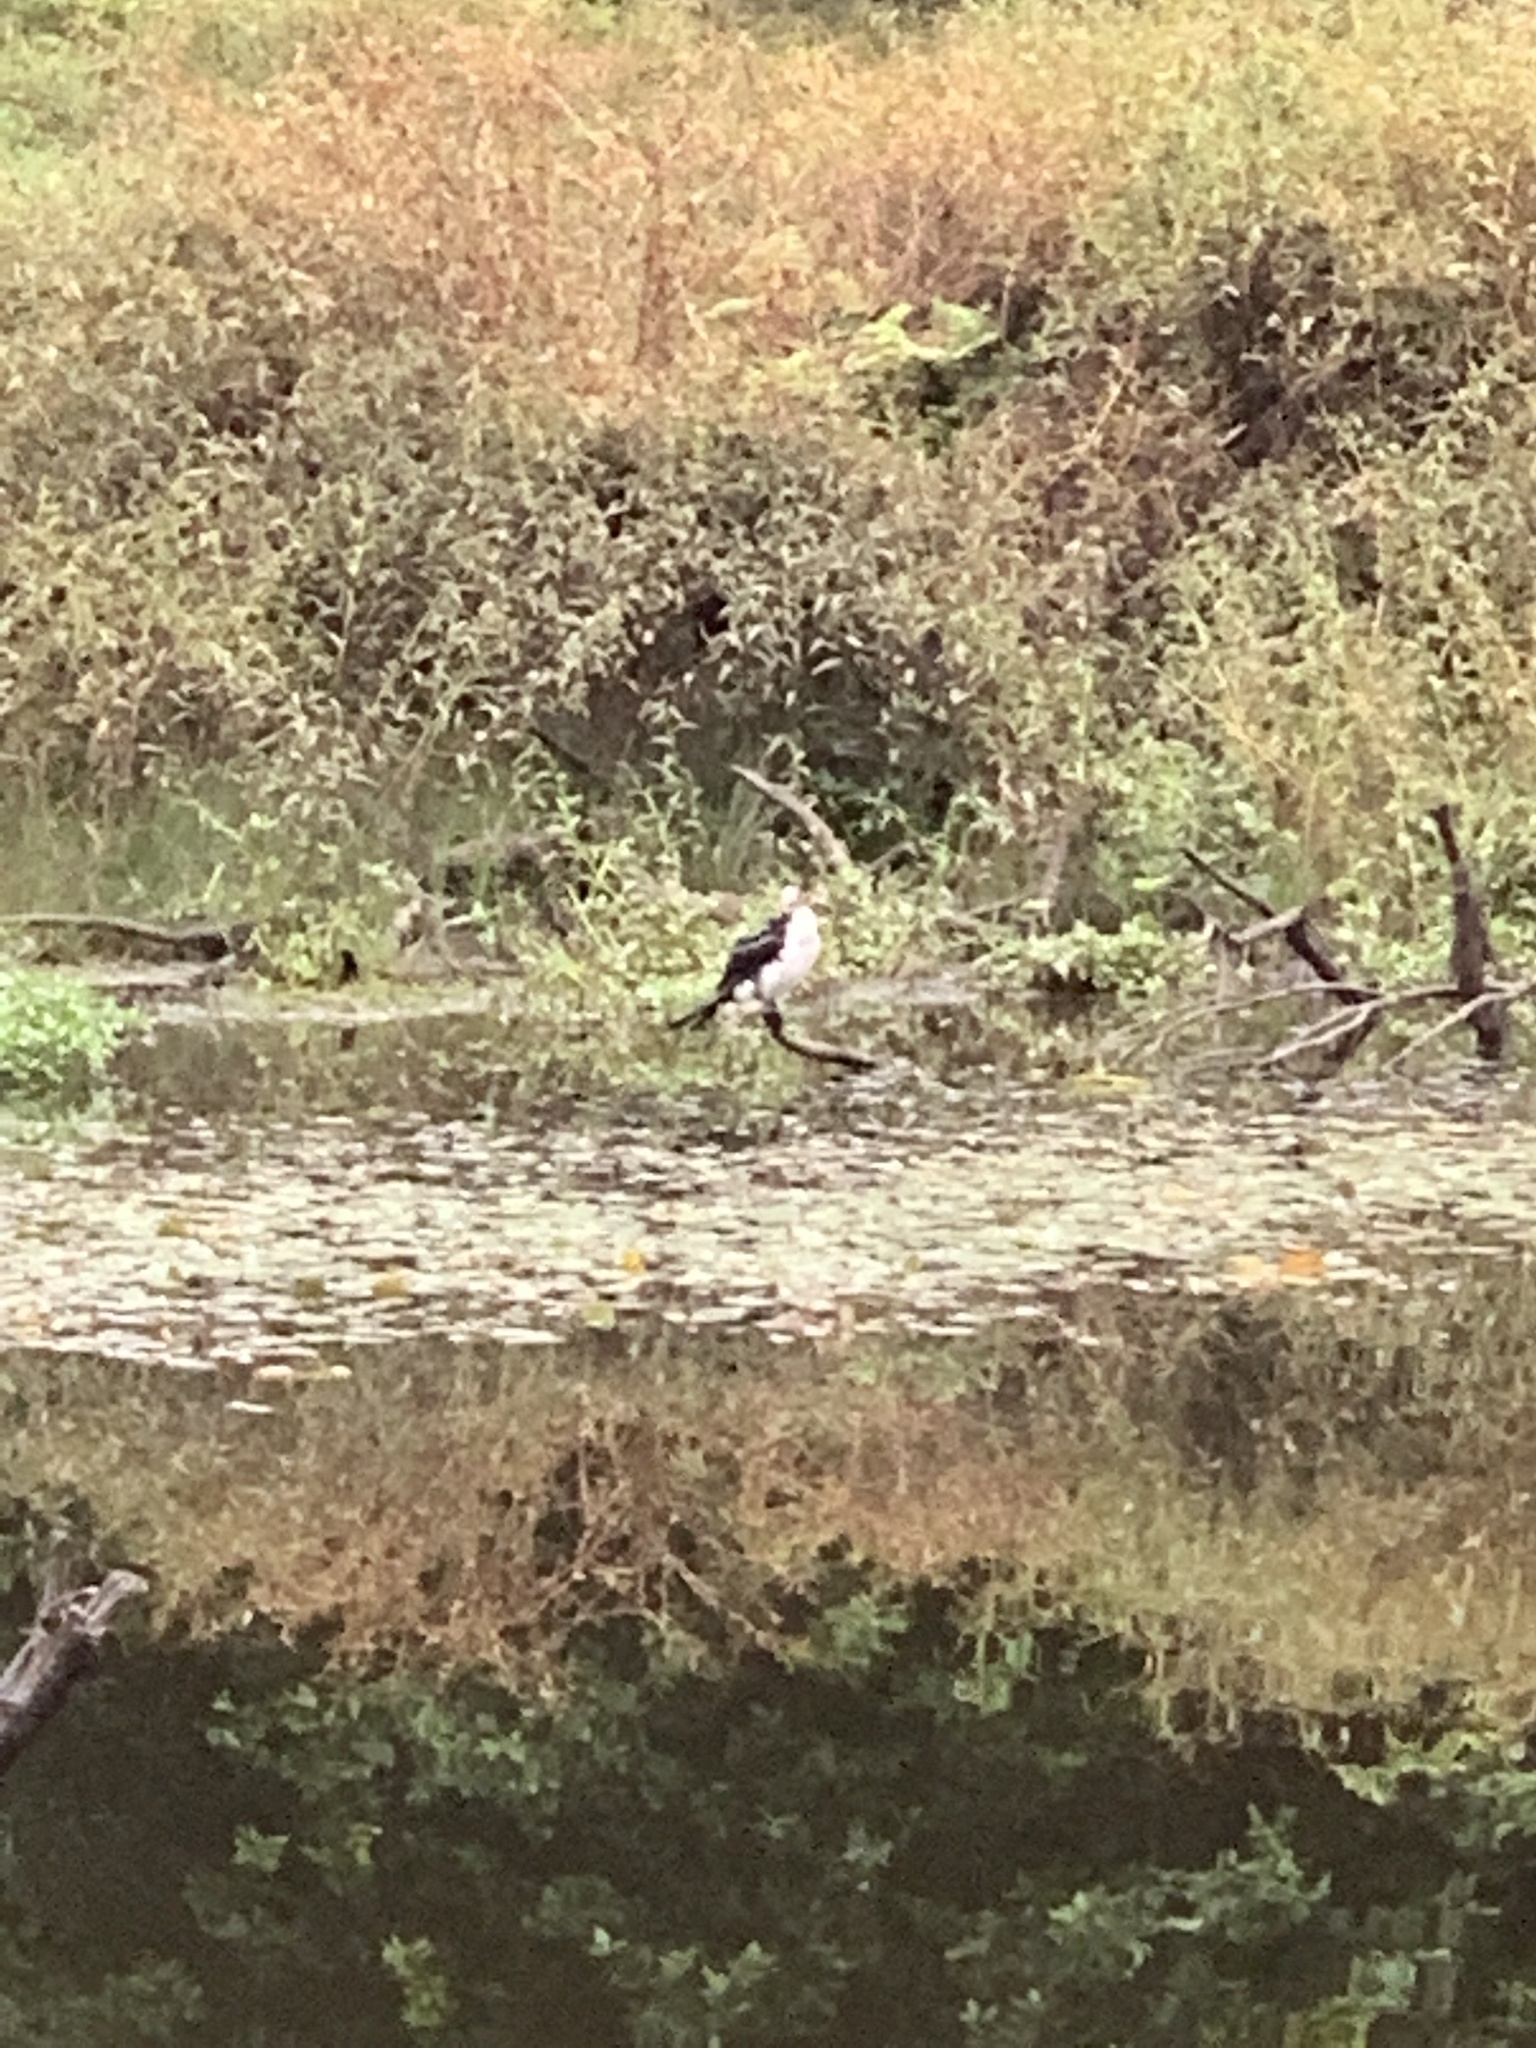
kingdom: Animalia
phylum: Chordata
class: Aves
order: Suliformes
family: Phalacrocoracidae
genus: Microcarbo
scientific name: Microcarbo melanoleucos
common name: Little pied cormorant
